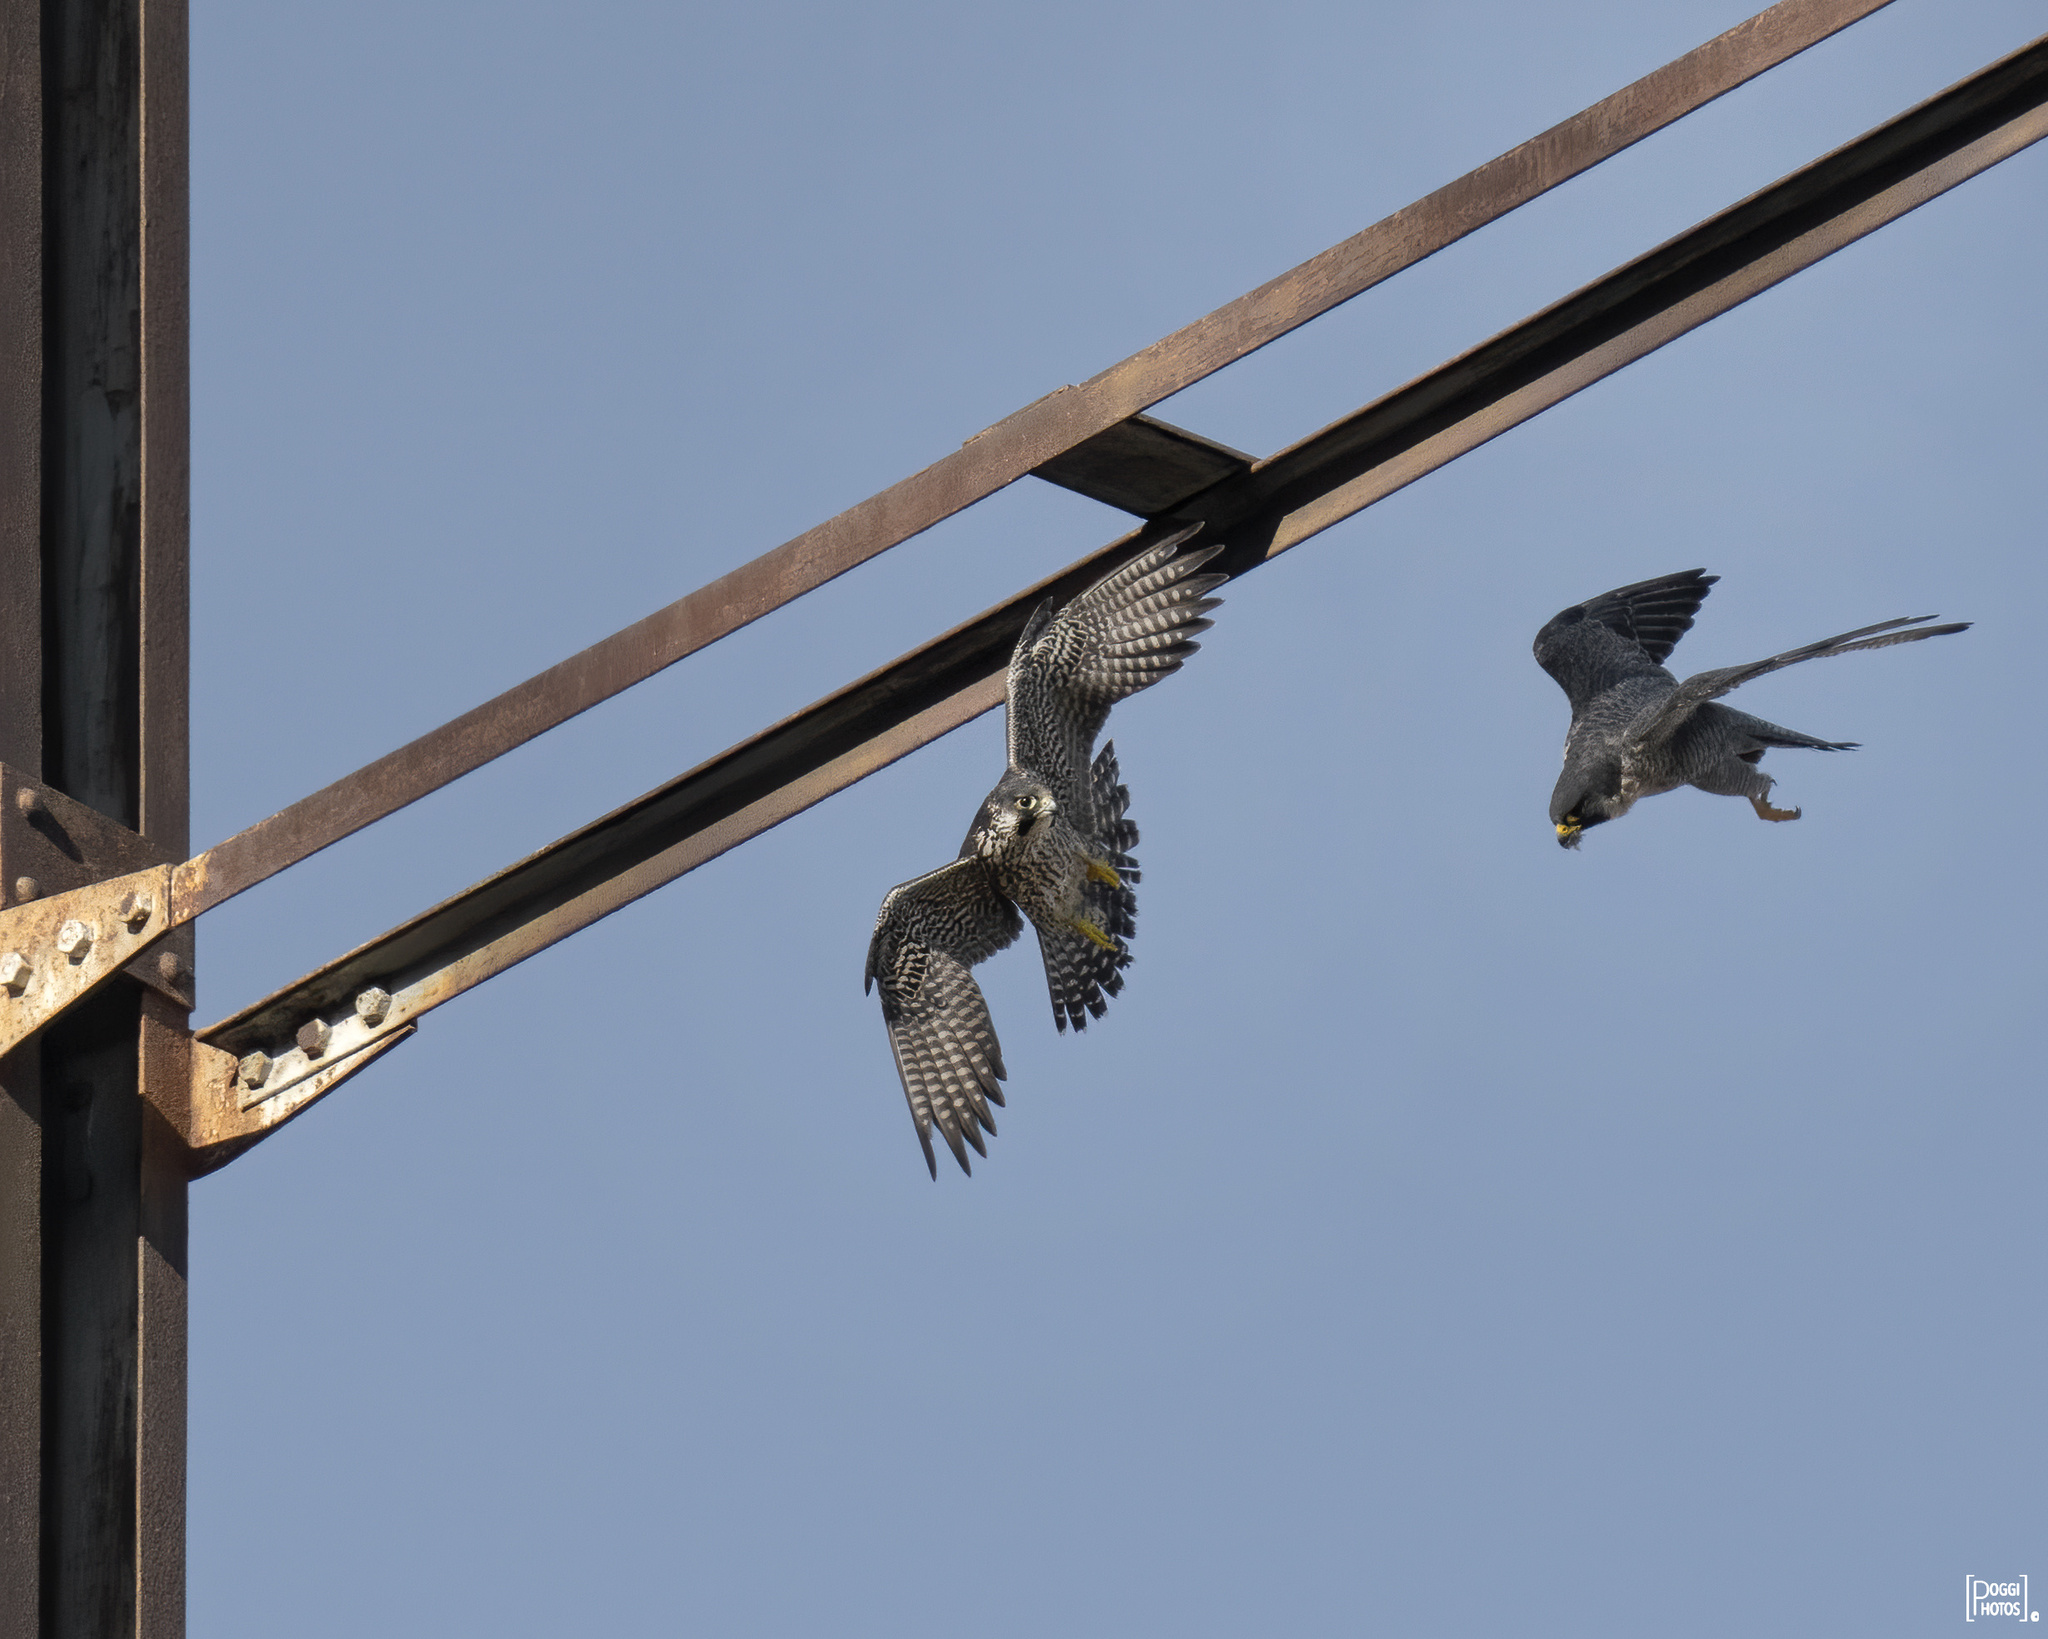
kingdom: Animalia
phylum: Chordata
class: Aves
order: Falconiformes
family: Falconidae
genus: Falco
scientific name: Falco peregrinus
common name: Peregrine falcon
